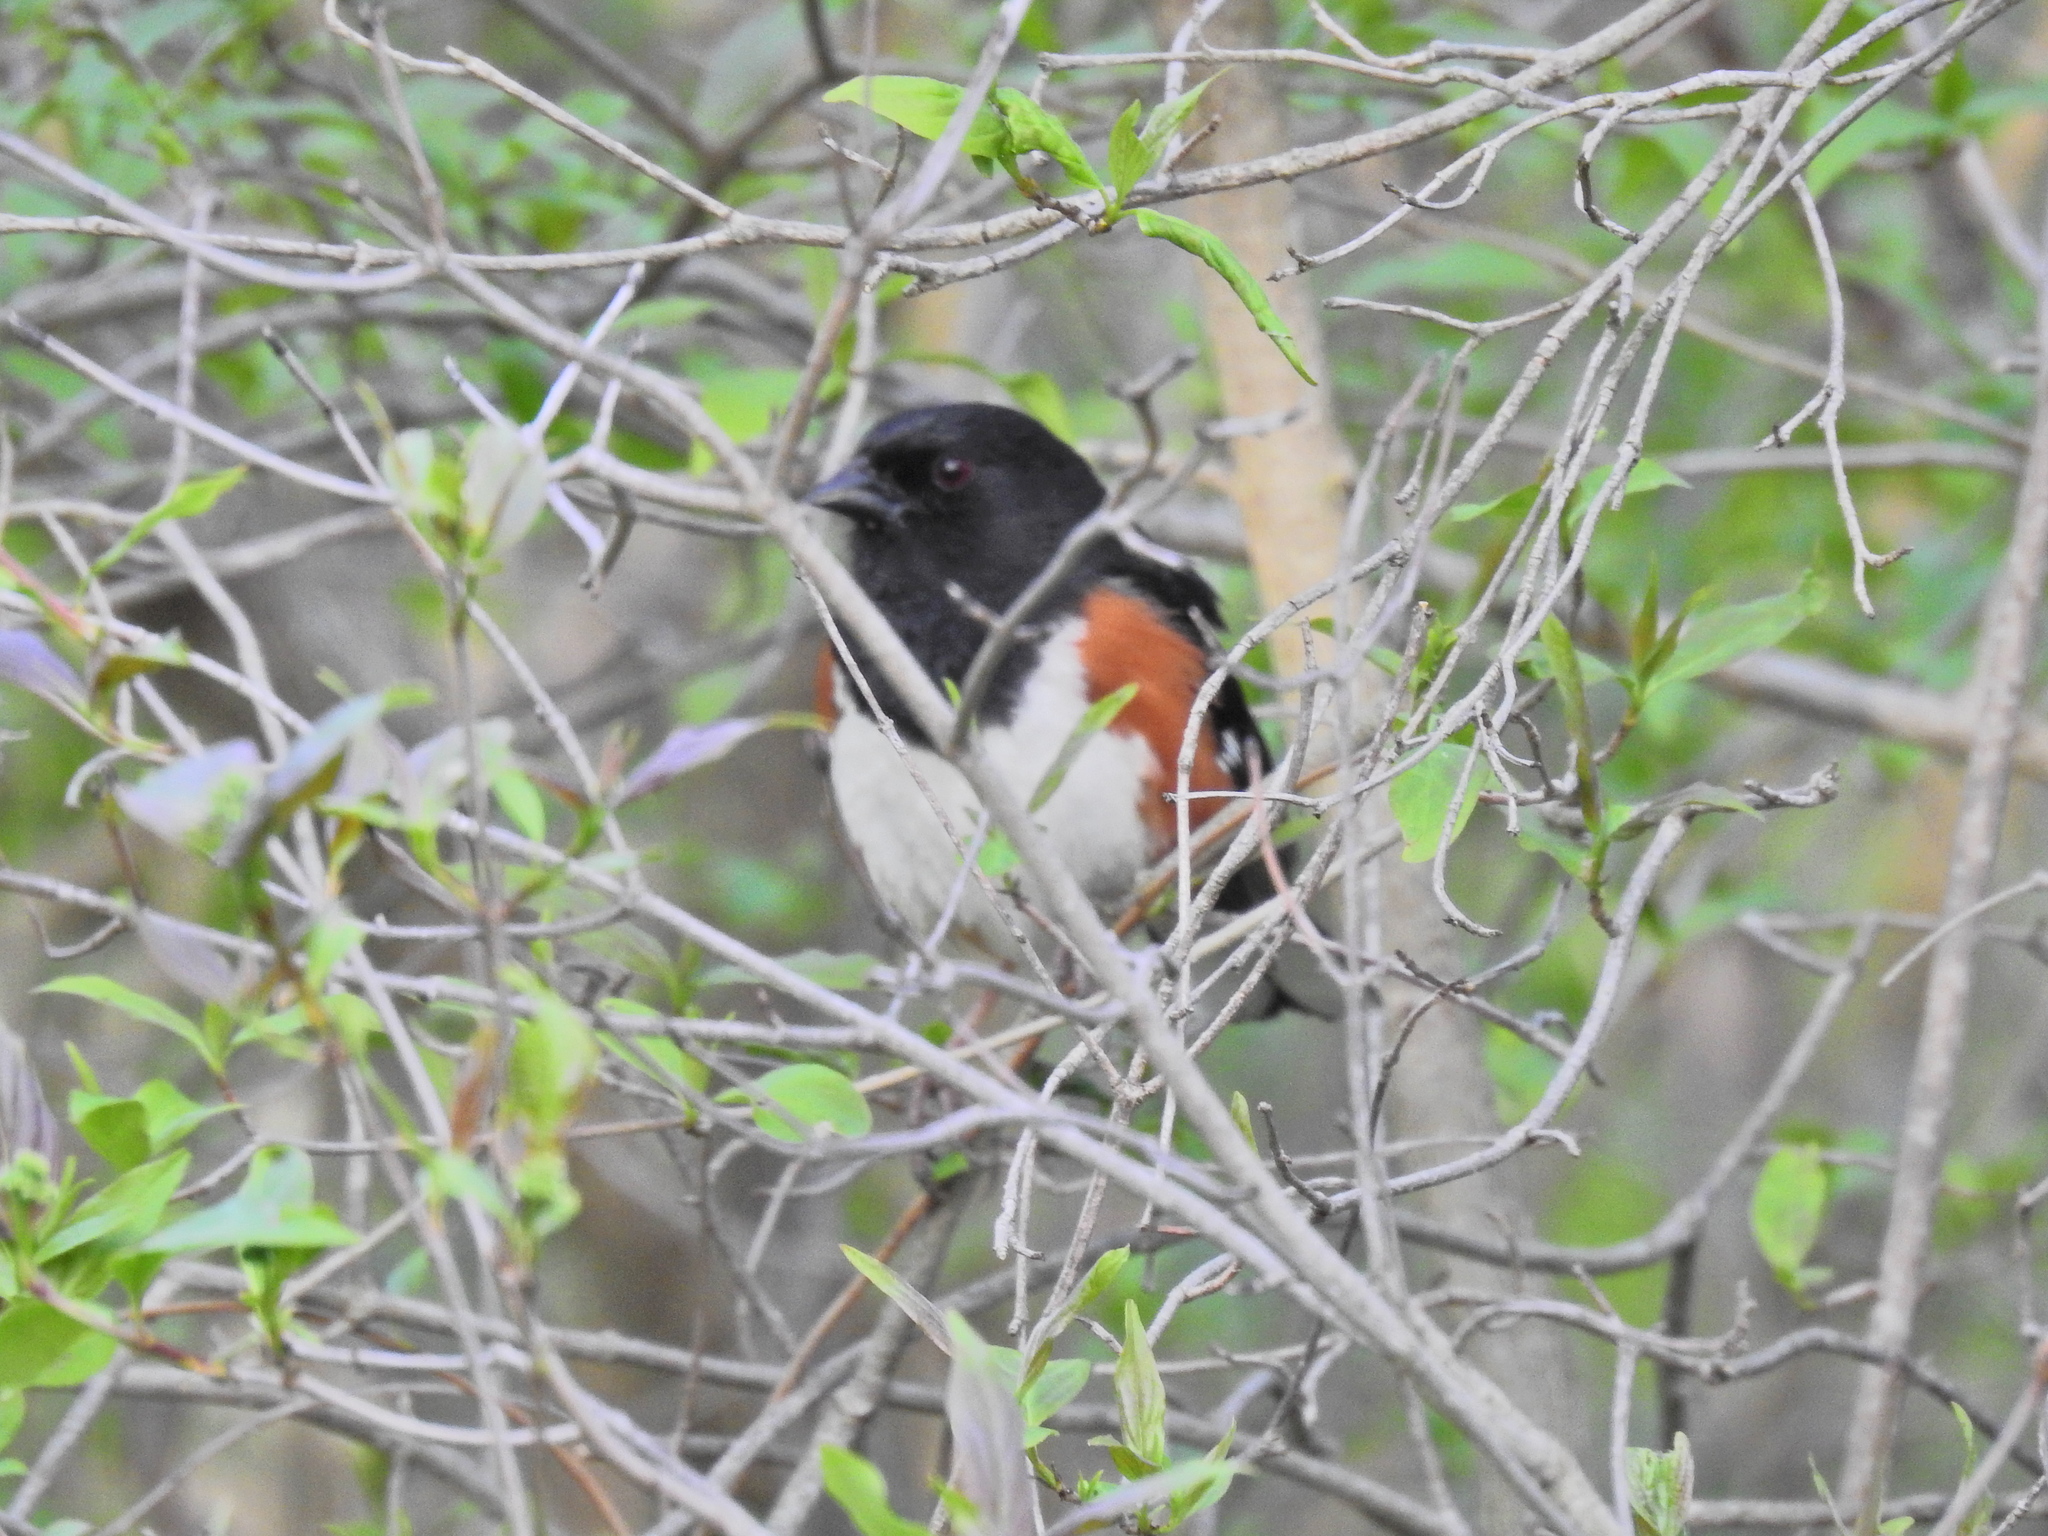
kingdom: Animalia
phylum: Chordata
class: Aves
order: Passeriformes
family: Passerellidae
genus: Pipilo
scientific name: Pipilo erythrophthalmus
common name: Eastern towhee
